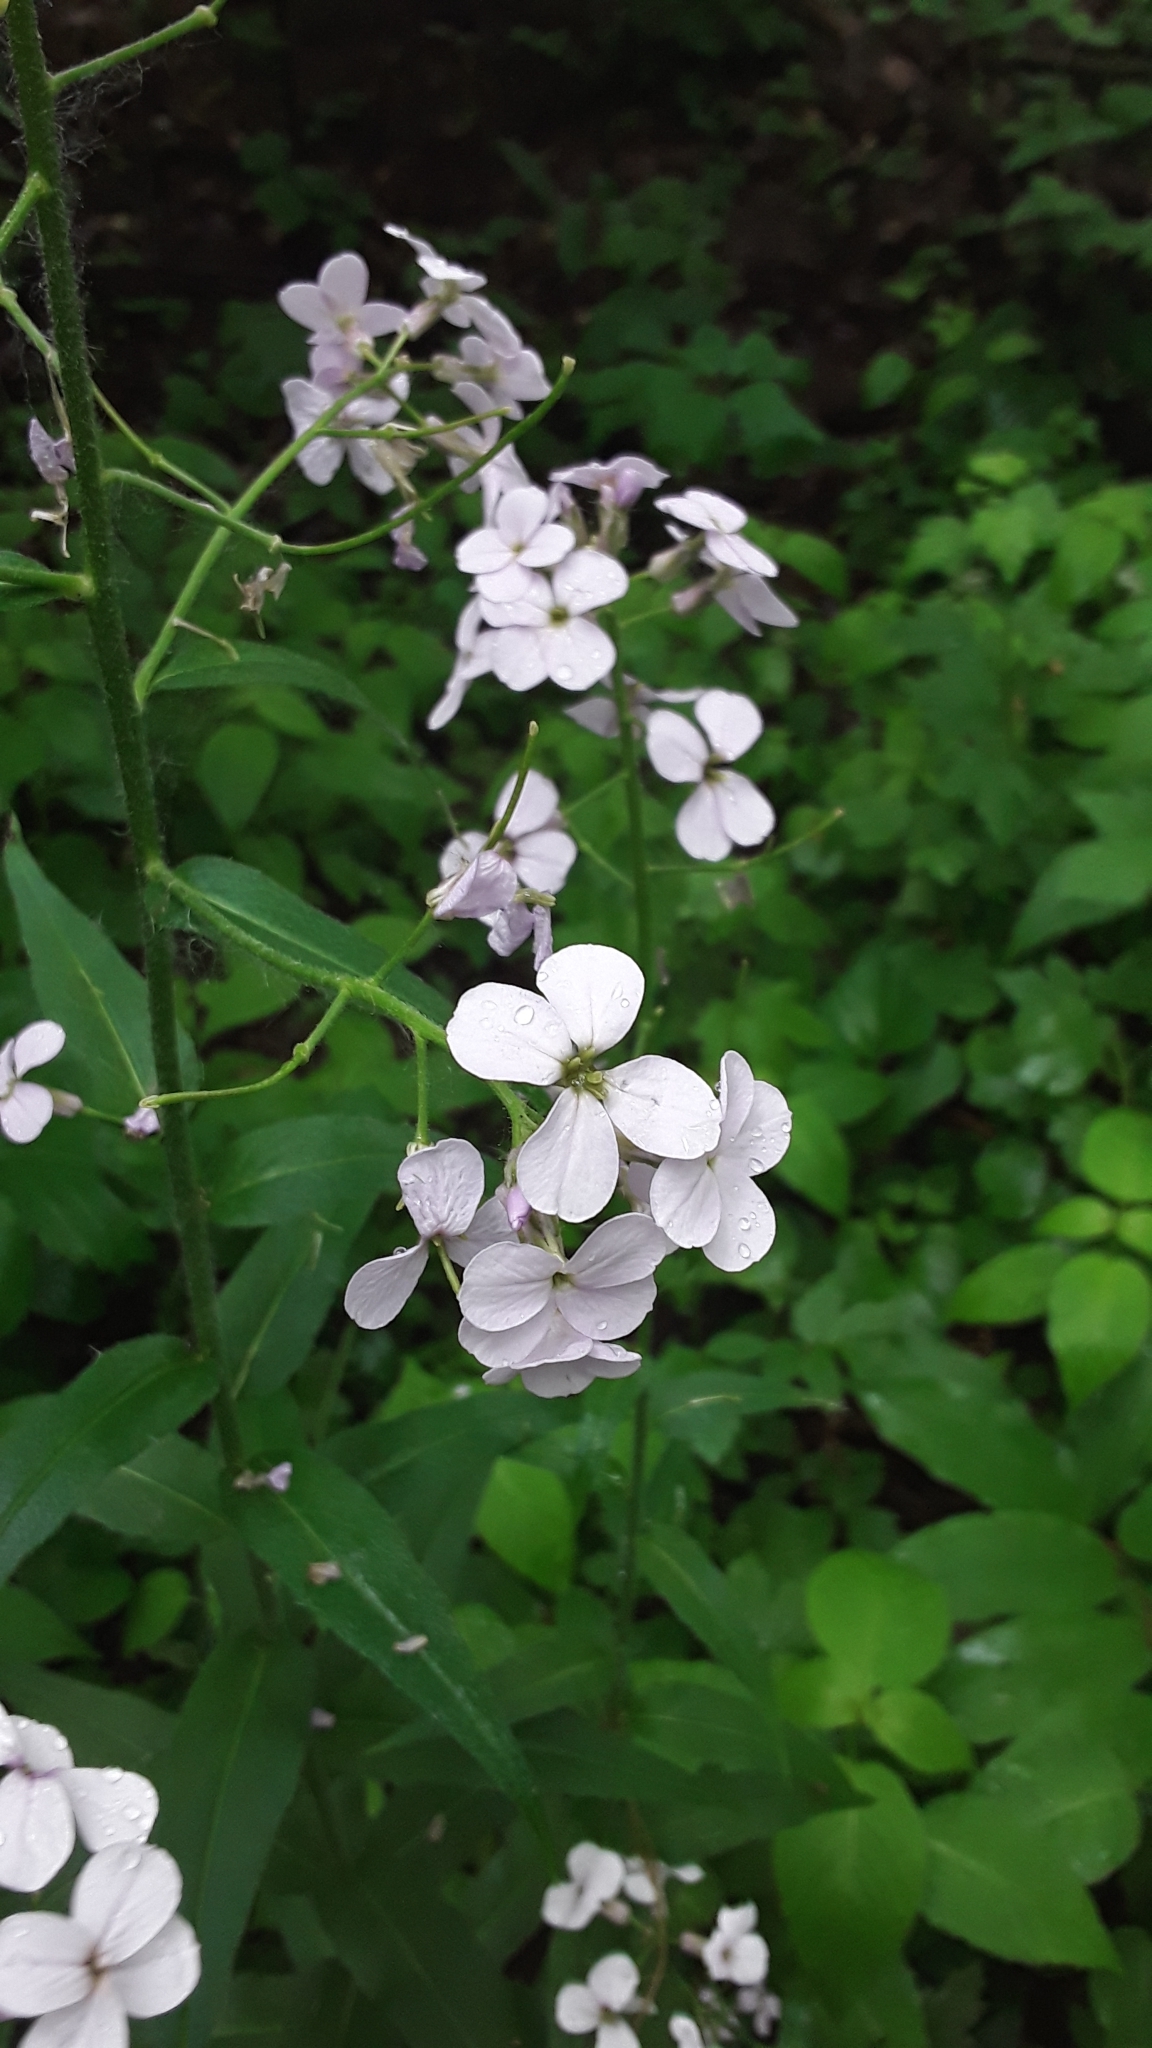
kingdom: Plantae
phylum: Tracheophyta
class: Magnoliopsida
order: Brassicales
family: Brassicaceae
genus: Hesperis
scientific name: Hesperis matronalis
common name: Dame's-violet
